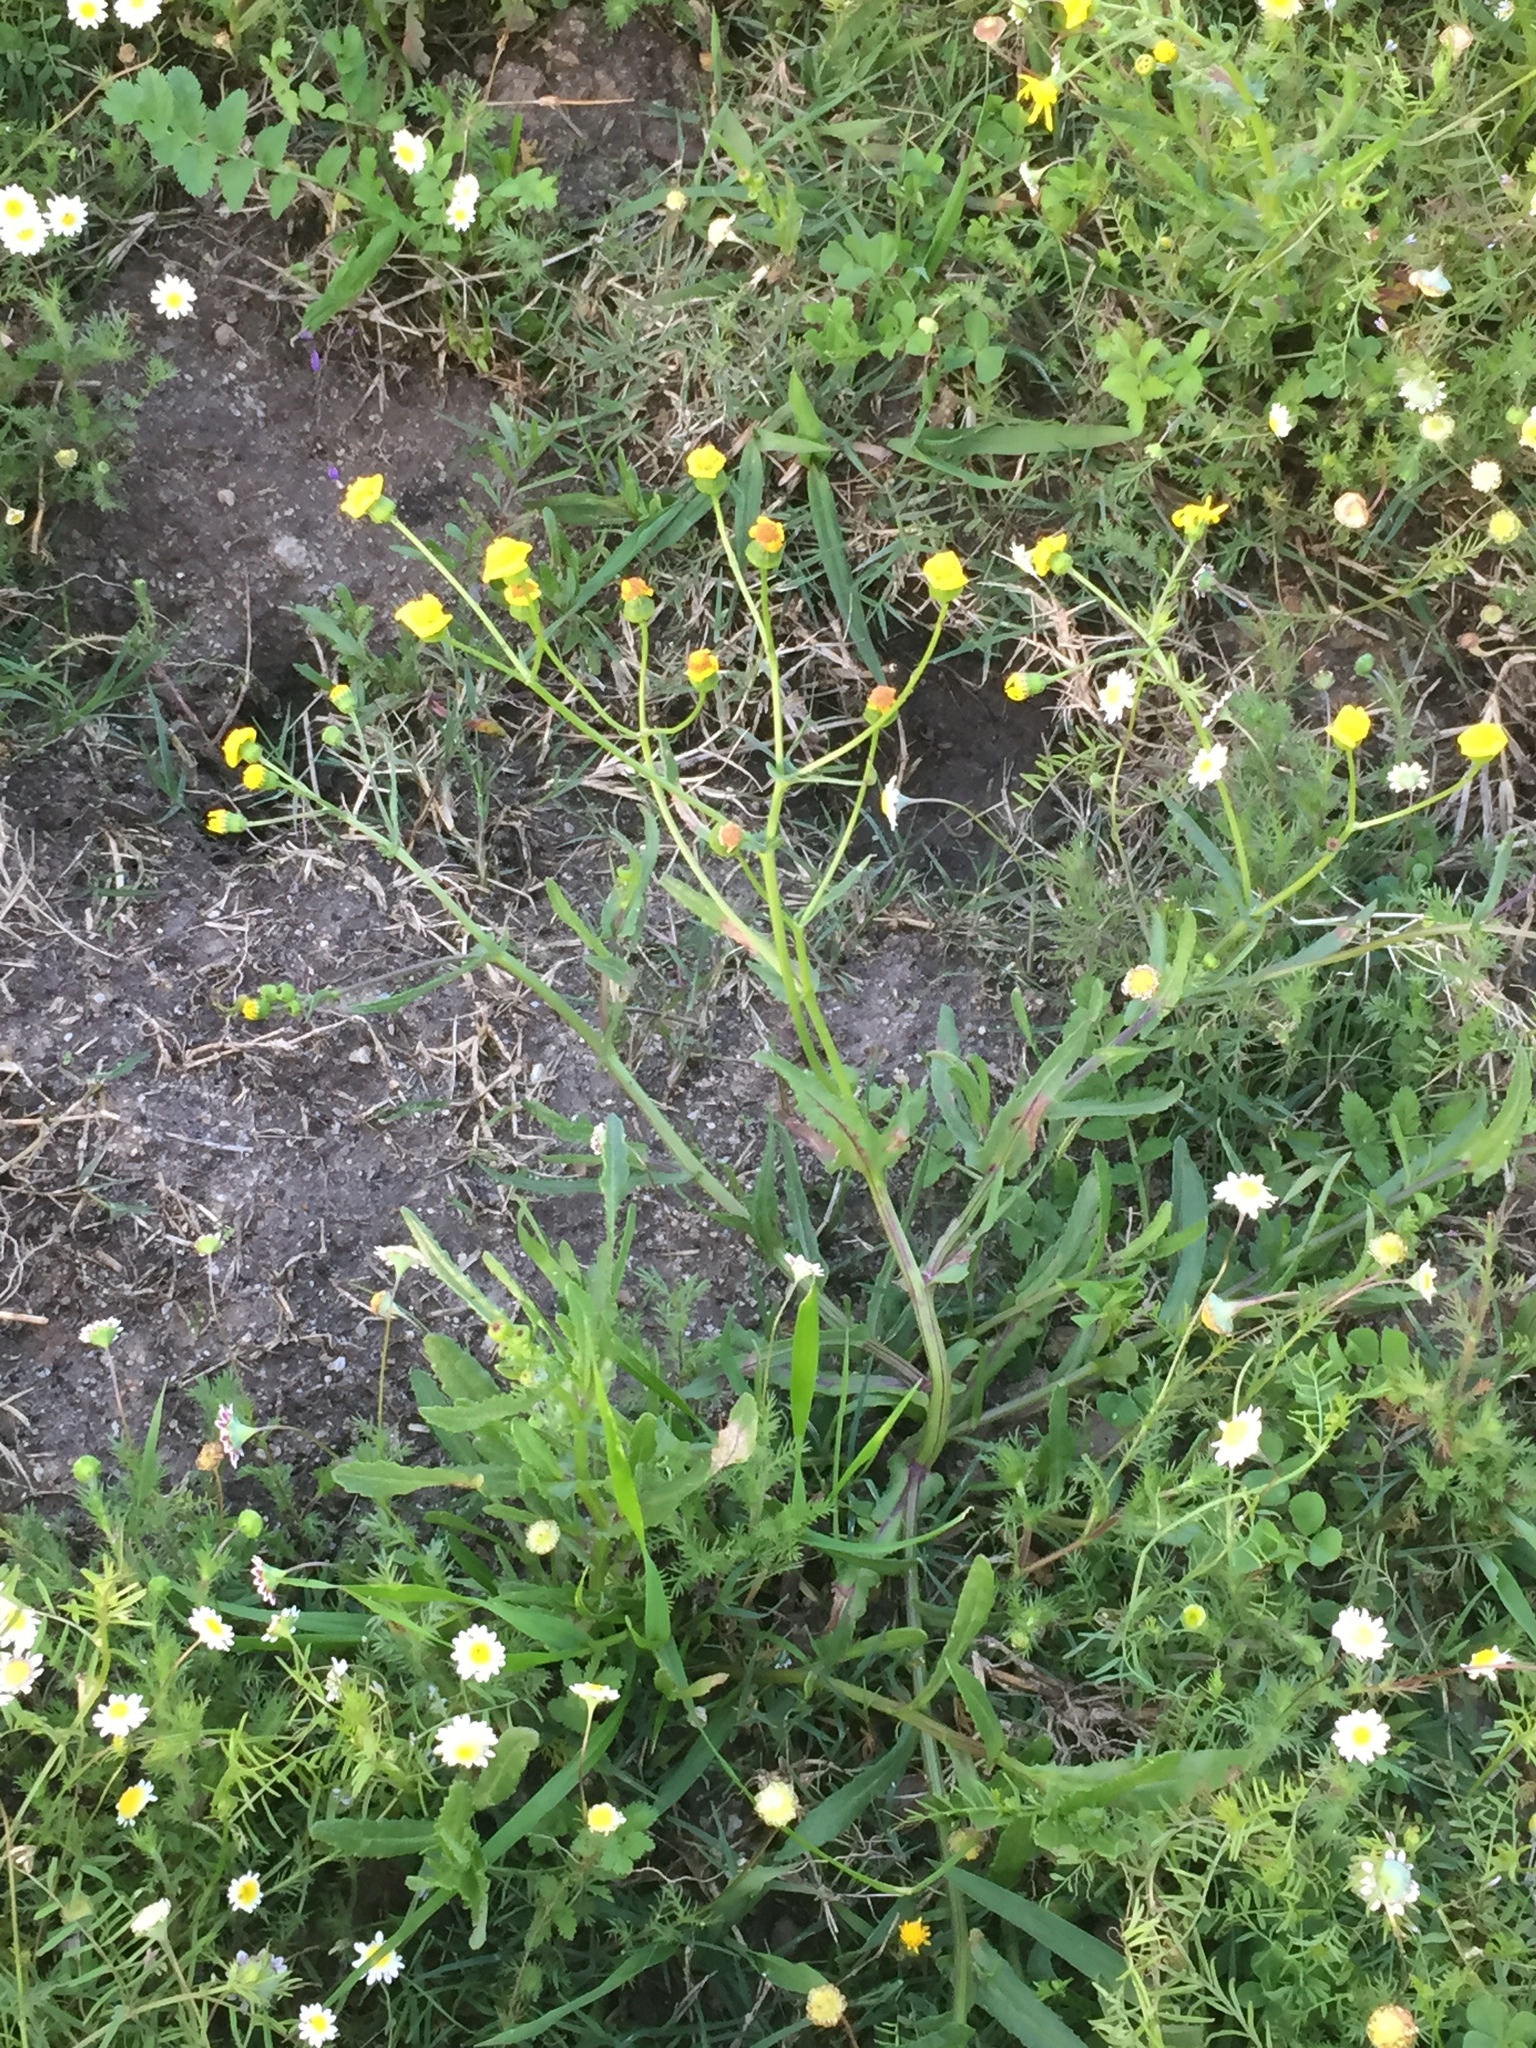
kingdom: Plantae
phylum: Tracheophyta
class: Magnoliopsida
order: Asterales
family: Asteraceae
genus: Senecio
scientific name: Senecio littoreus
